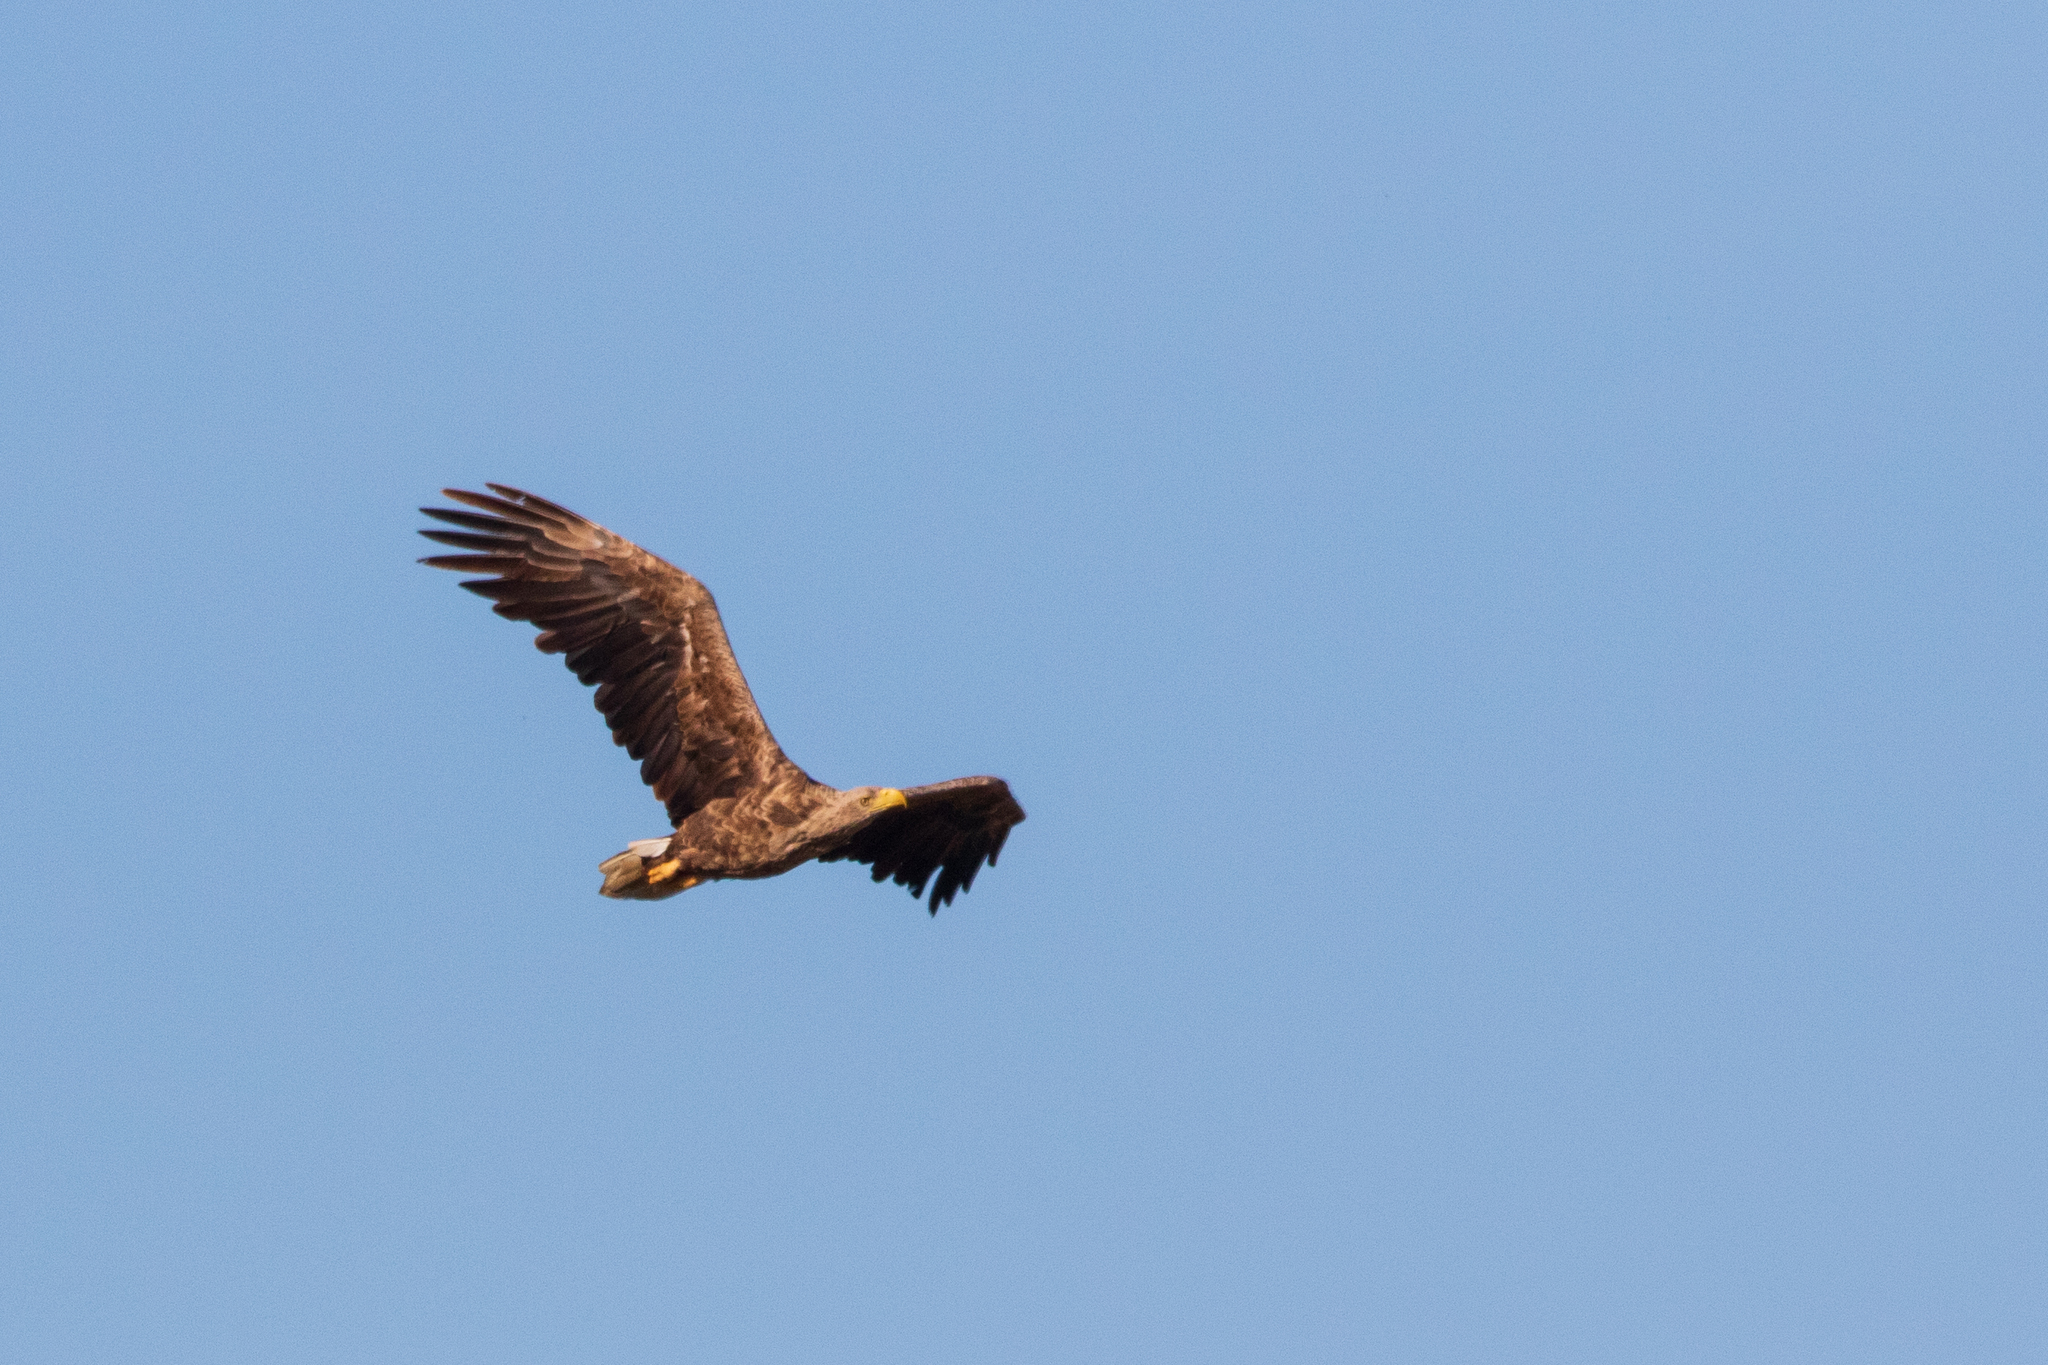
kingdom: Animalia
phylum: Chordata
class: Aves
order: Accipitriformes
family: Accipitridae
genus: Haliaeetus
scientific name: Haliaeetus albicilla
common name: White-tailed eagle
